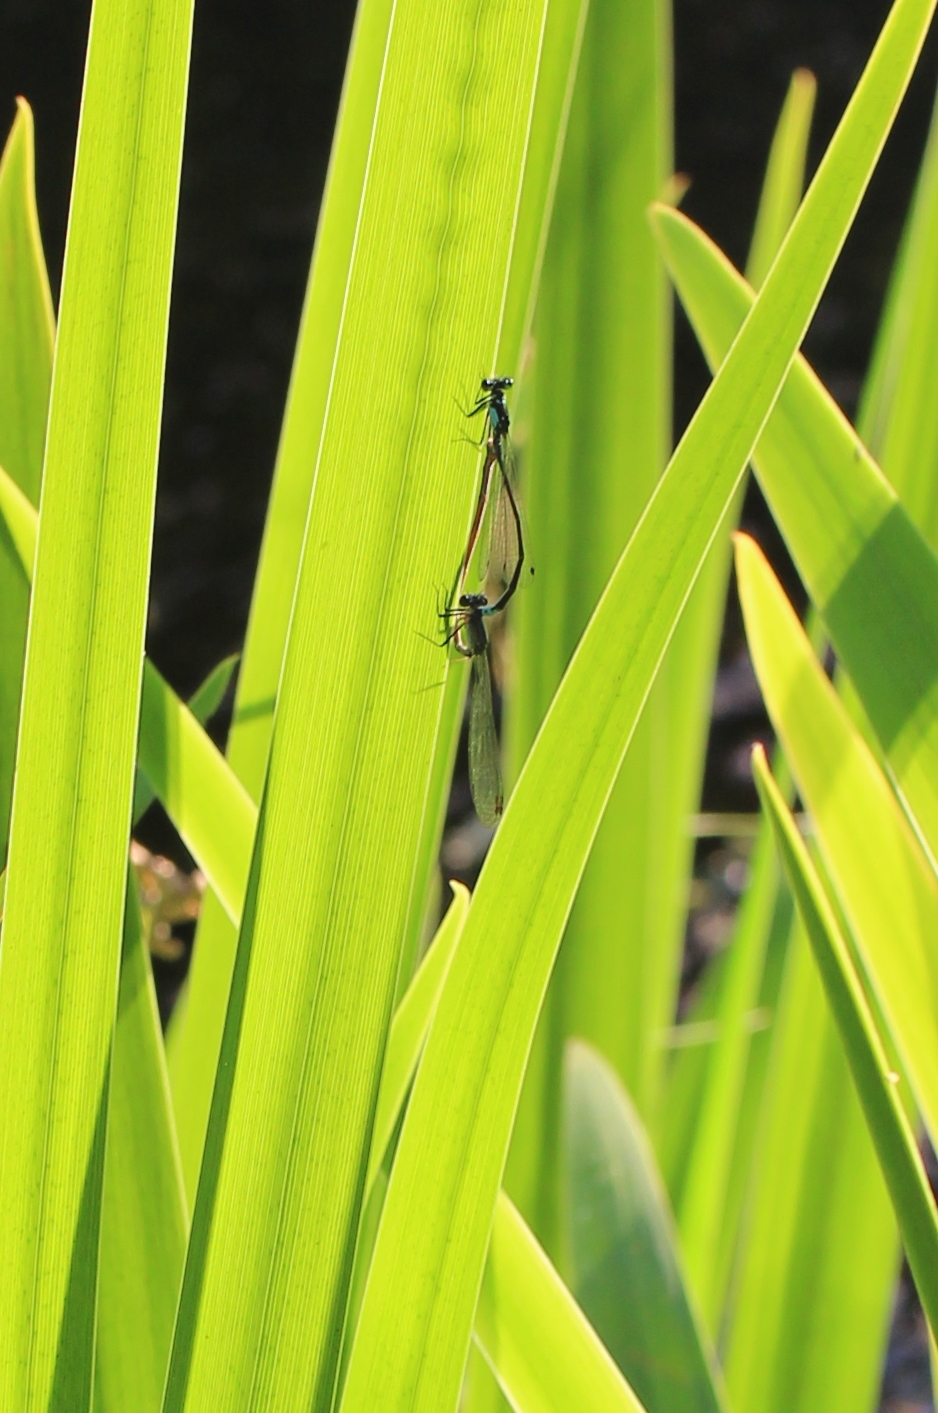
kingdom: Animalia
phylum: Arthropoda
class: Insecta
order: Odonata
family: Coenagrionidae
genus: Ischnura
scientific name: Ischnura cervula
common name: Pacific forktail
